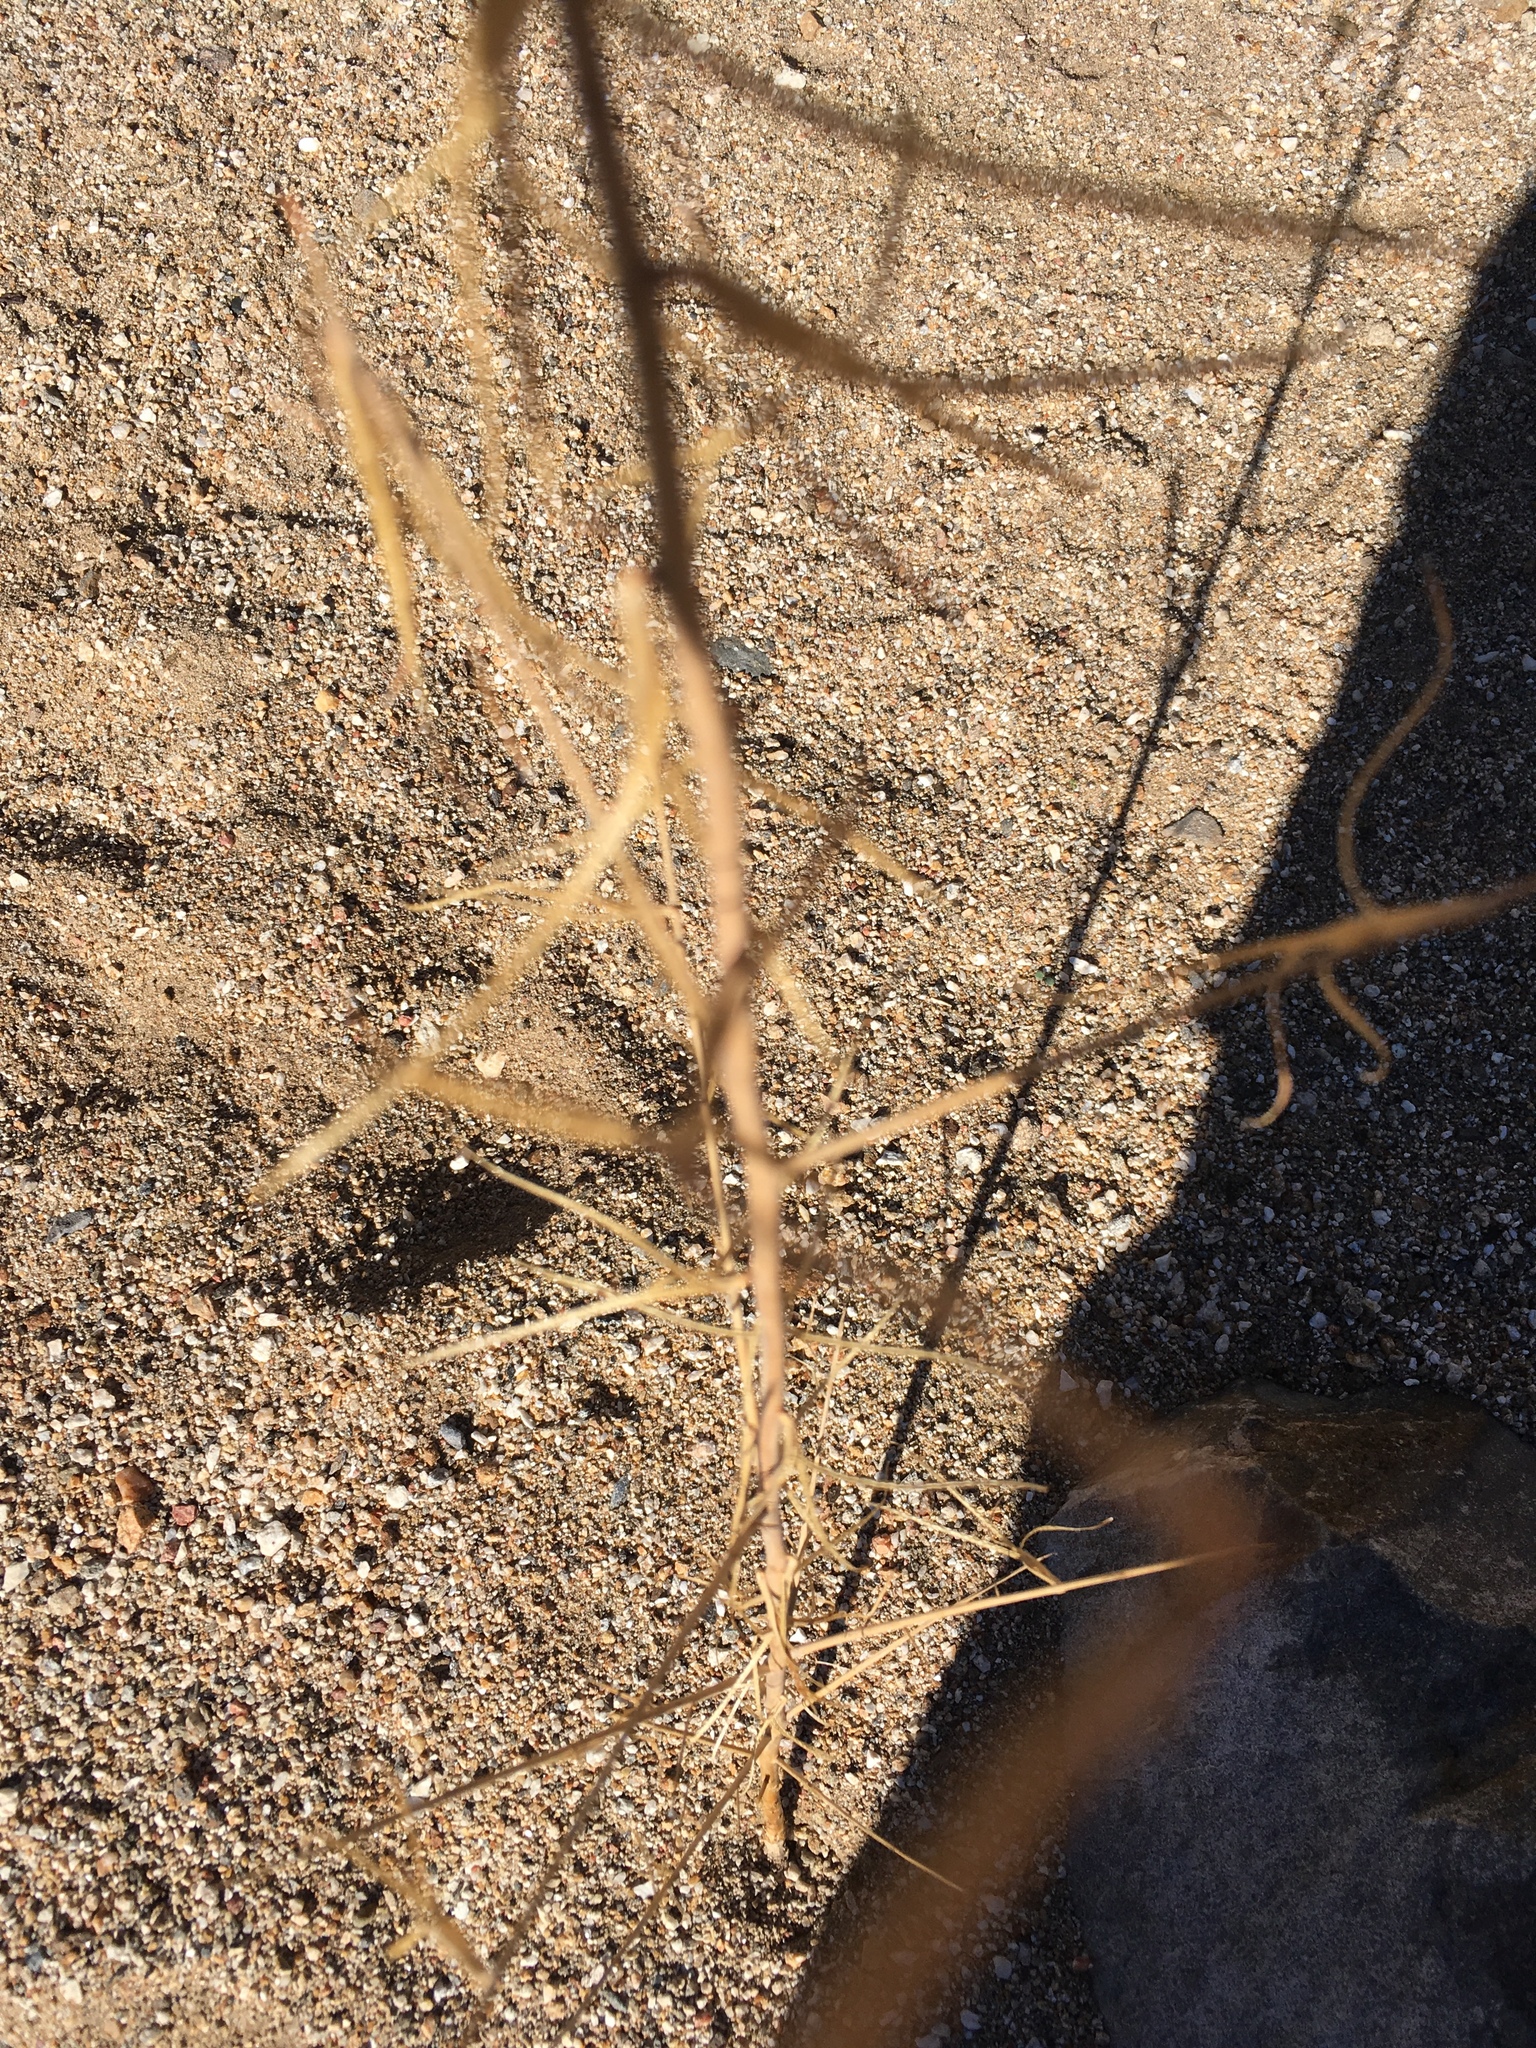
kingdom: Plantae
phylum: Tracheophyta
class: Magnoliopsida
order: Myrtales
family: Onagraceae
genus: Eulobus
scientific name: Eulobus californicus
